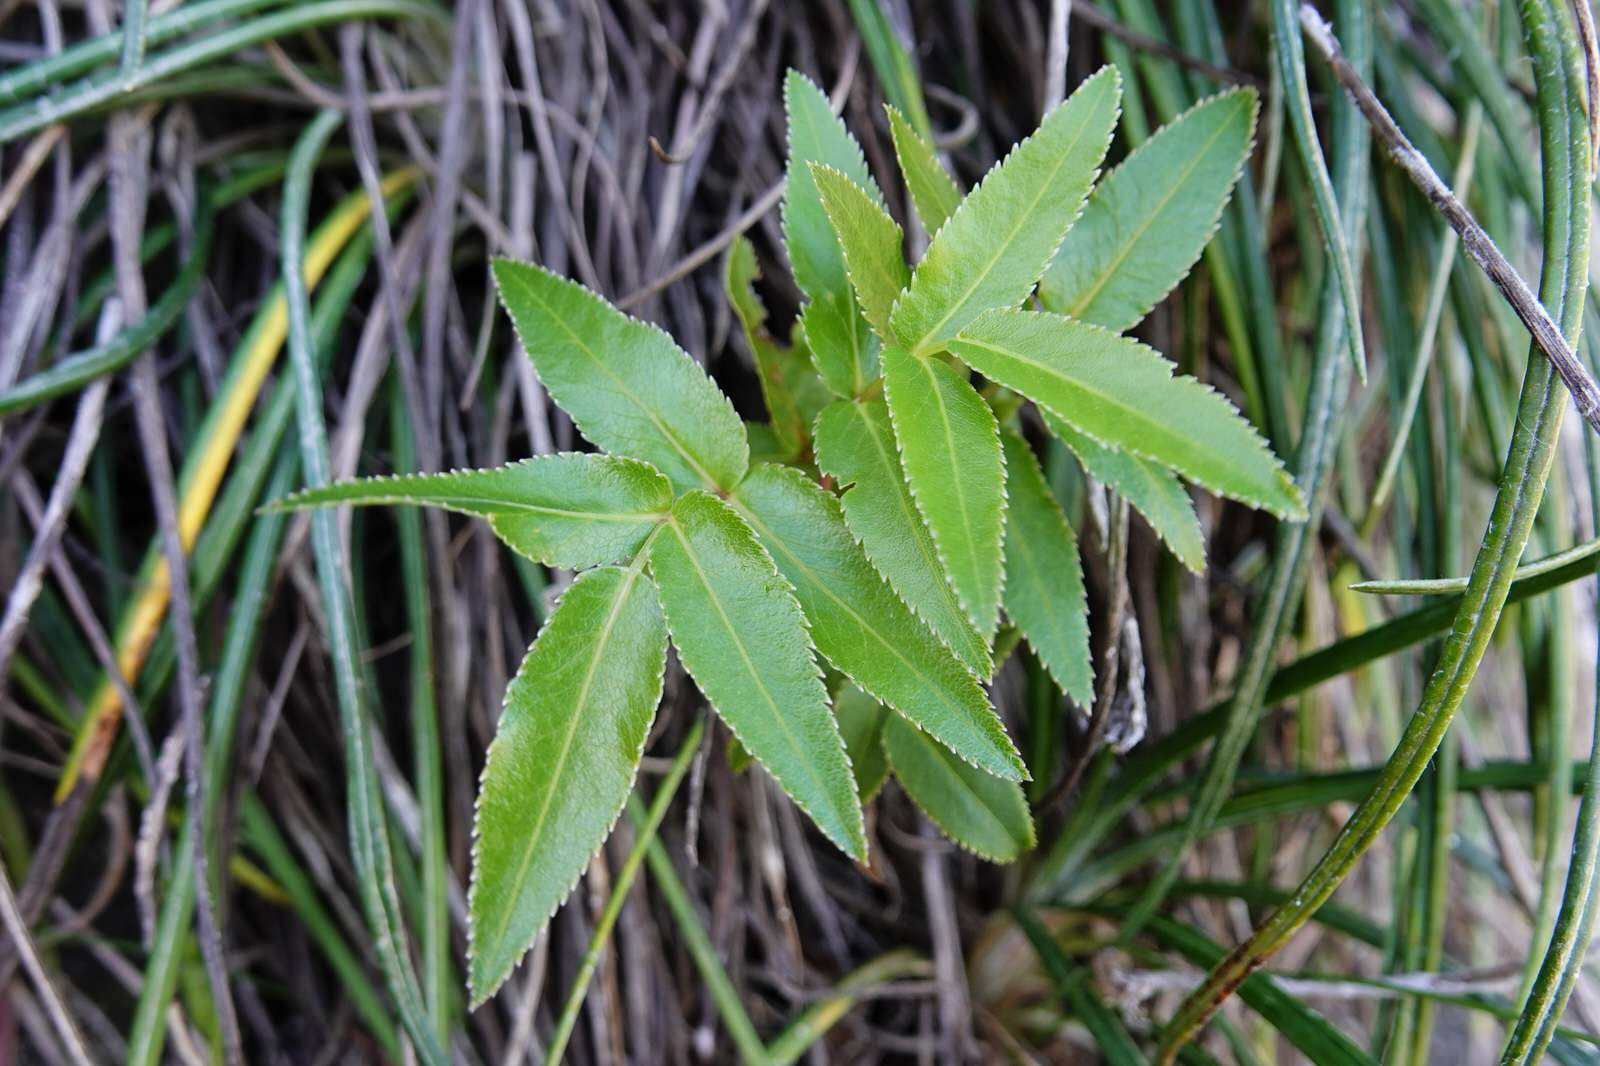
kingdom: Plantae
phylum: Tracheophyta
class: Magnoliopsida
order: Apiales
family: Apiaceae
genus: Scandia
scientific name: Scandia rosifolia
